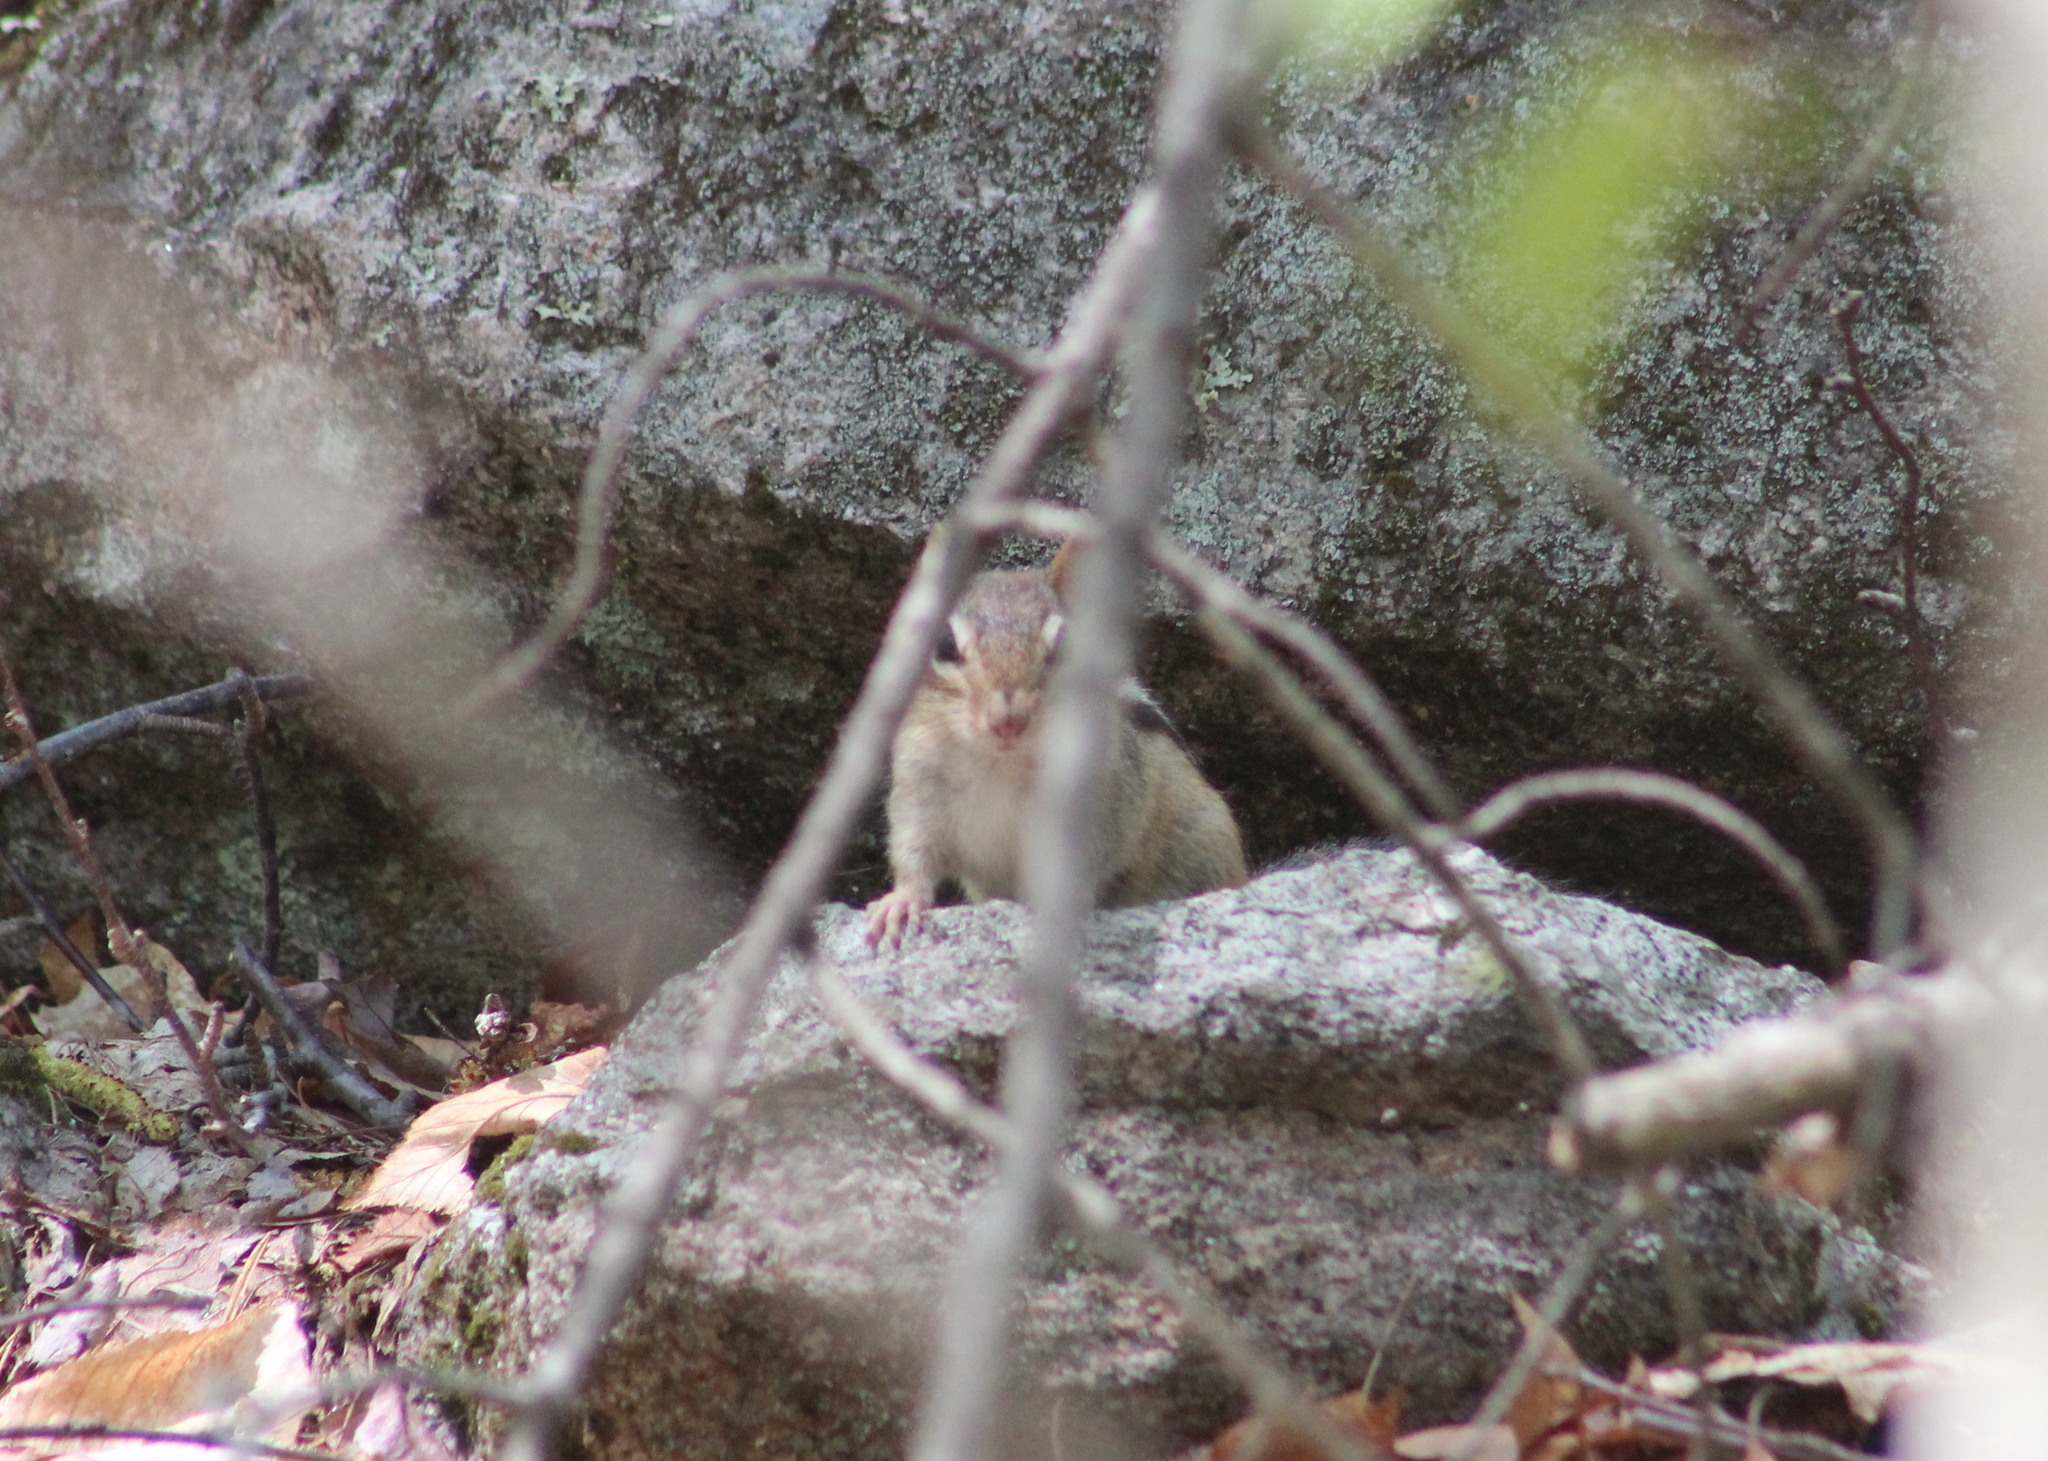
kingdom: Animalia
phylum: Chordata
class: Mammalia
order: Rodentia
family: Sciuridae
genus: Tamias
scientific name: Tamias striatus
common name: Eastern chipmunk
